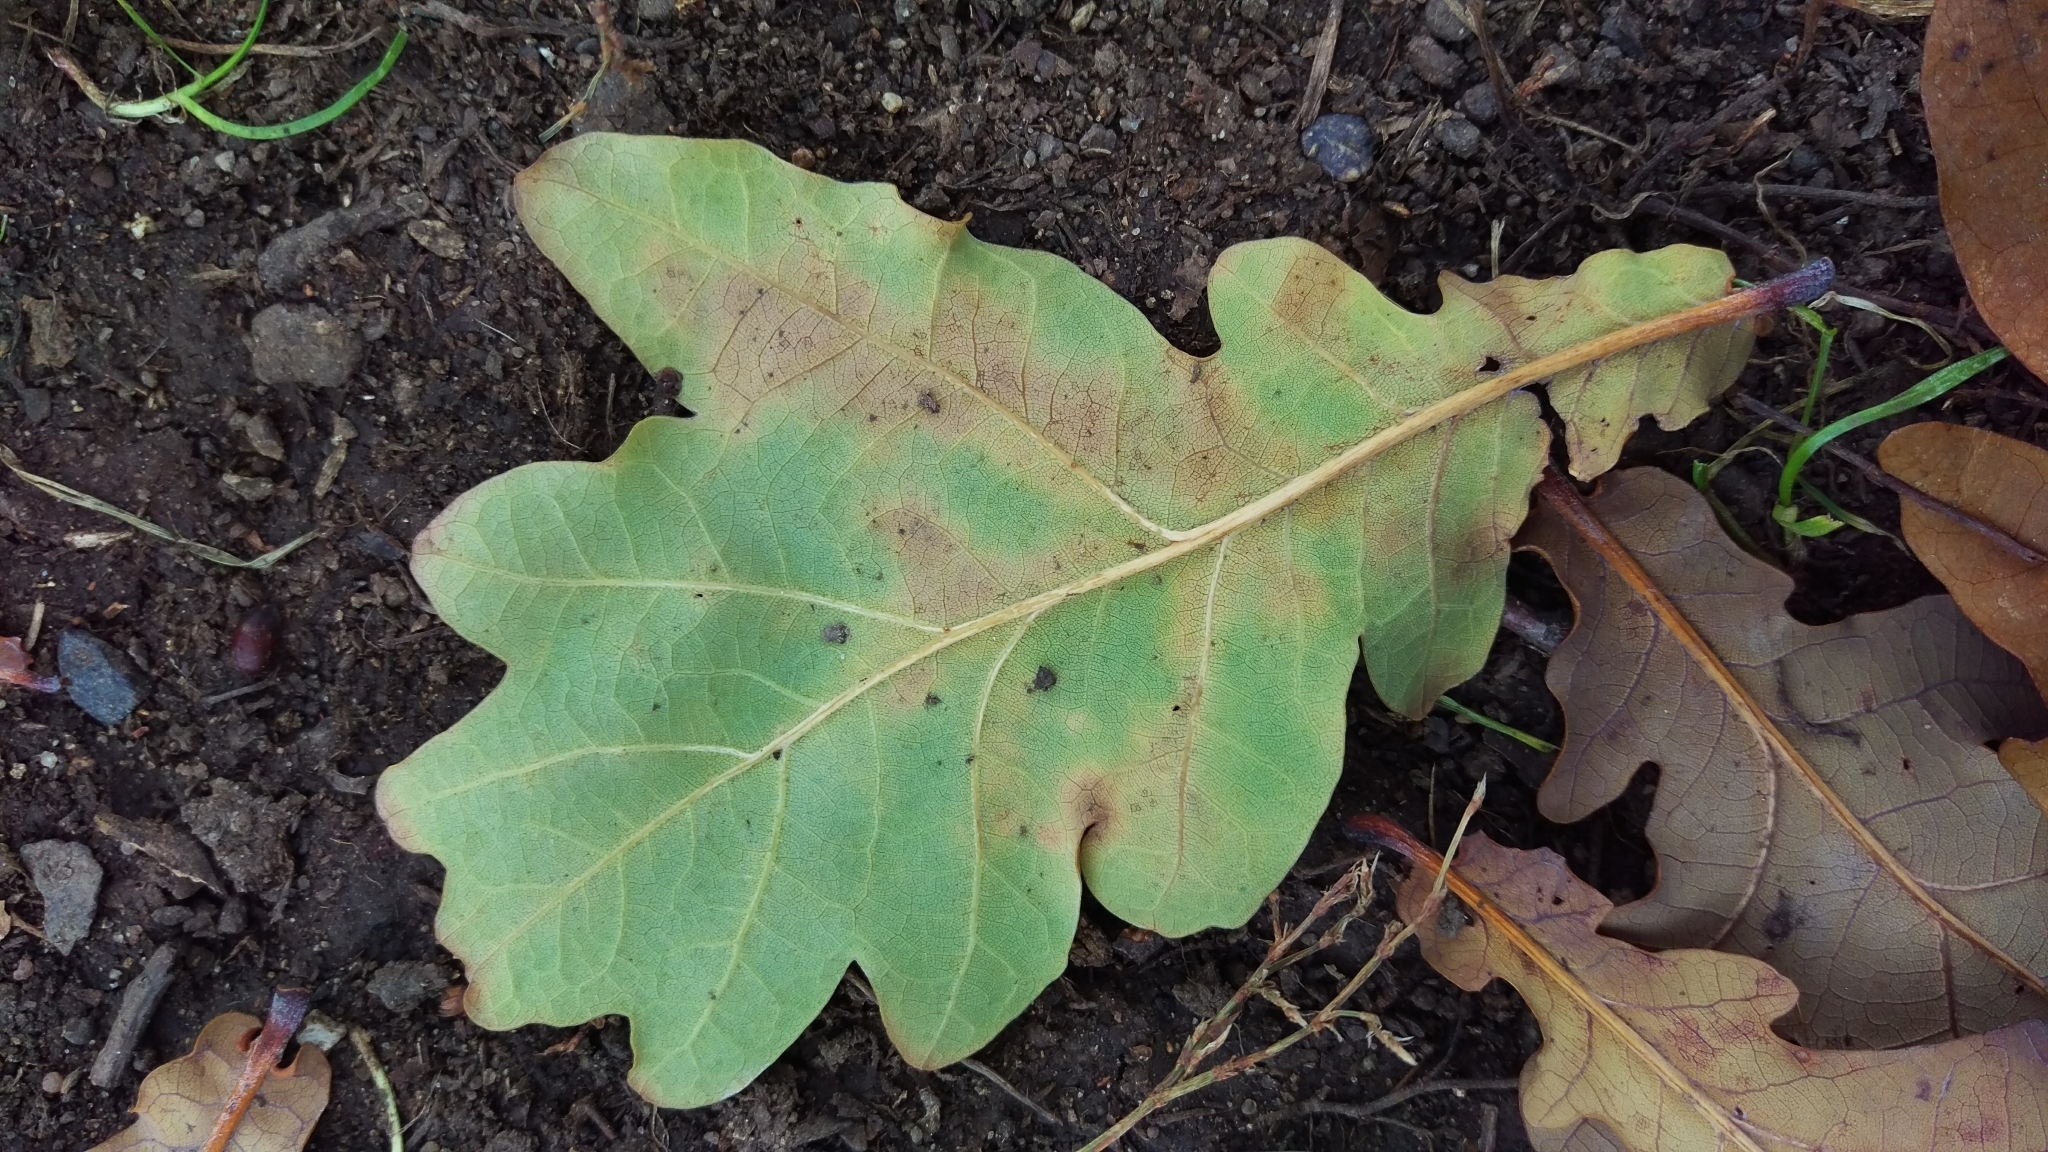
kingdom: Plantae
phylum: Tracheophyta
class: Magnoliopsida
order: Fagales
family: Fagaceae
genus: Quercus
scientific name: Quercus robur
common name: Pedunculate oak
